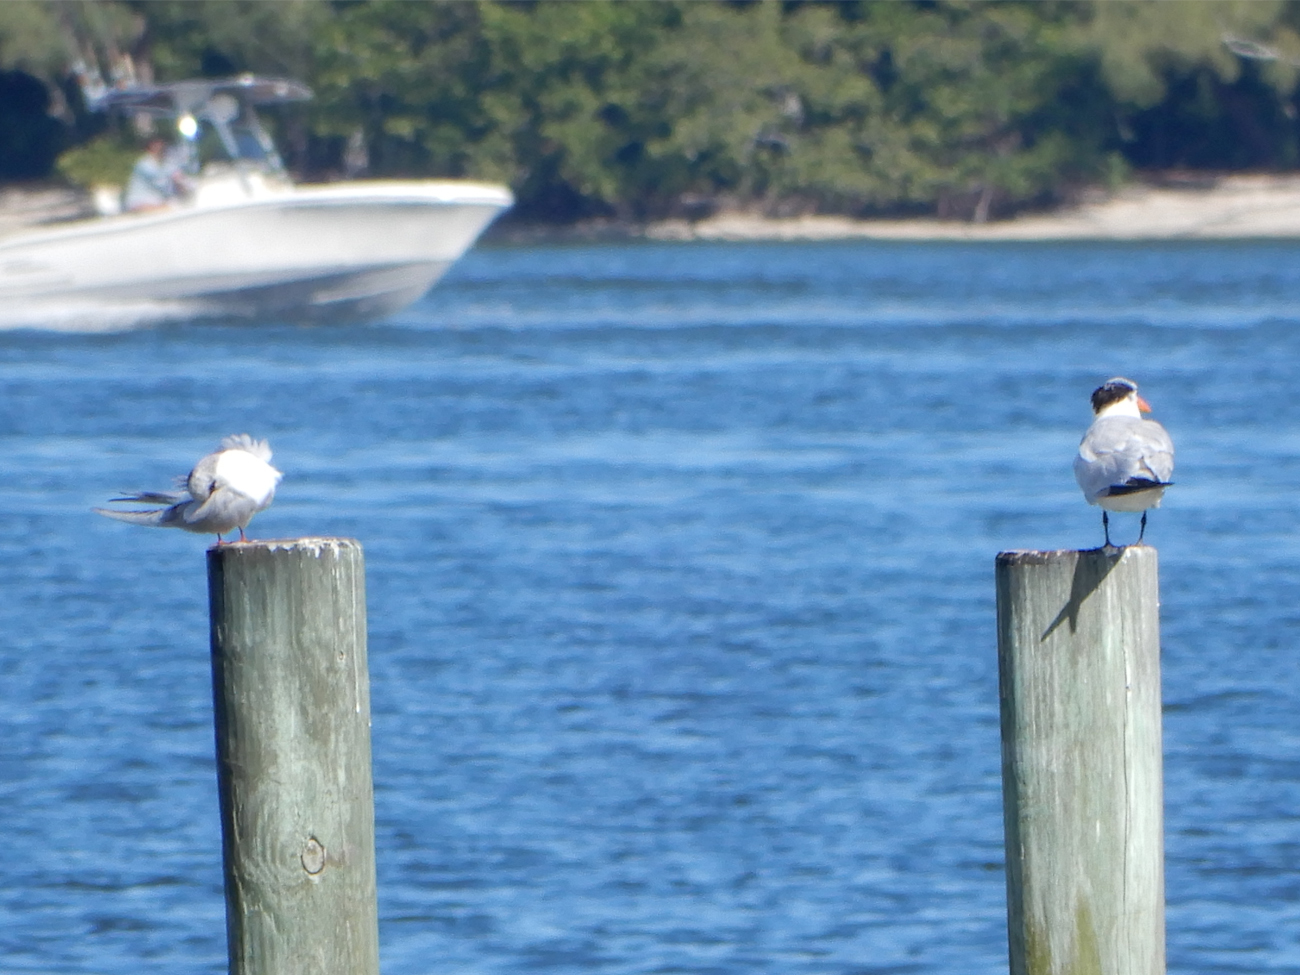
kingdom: Animalia
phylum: Chordata
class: Aves
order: Charadriiformes
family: Laridae
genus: Thalasseus
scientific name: Thalasseus maximus
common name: Royal tern
